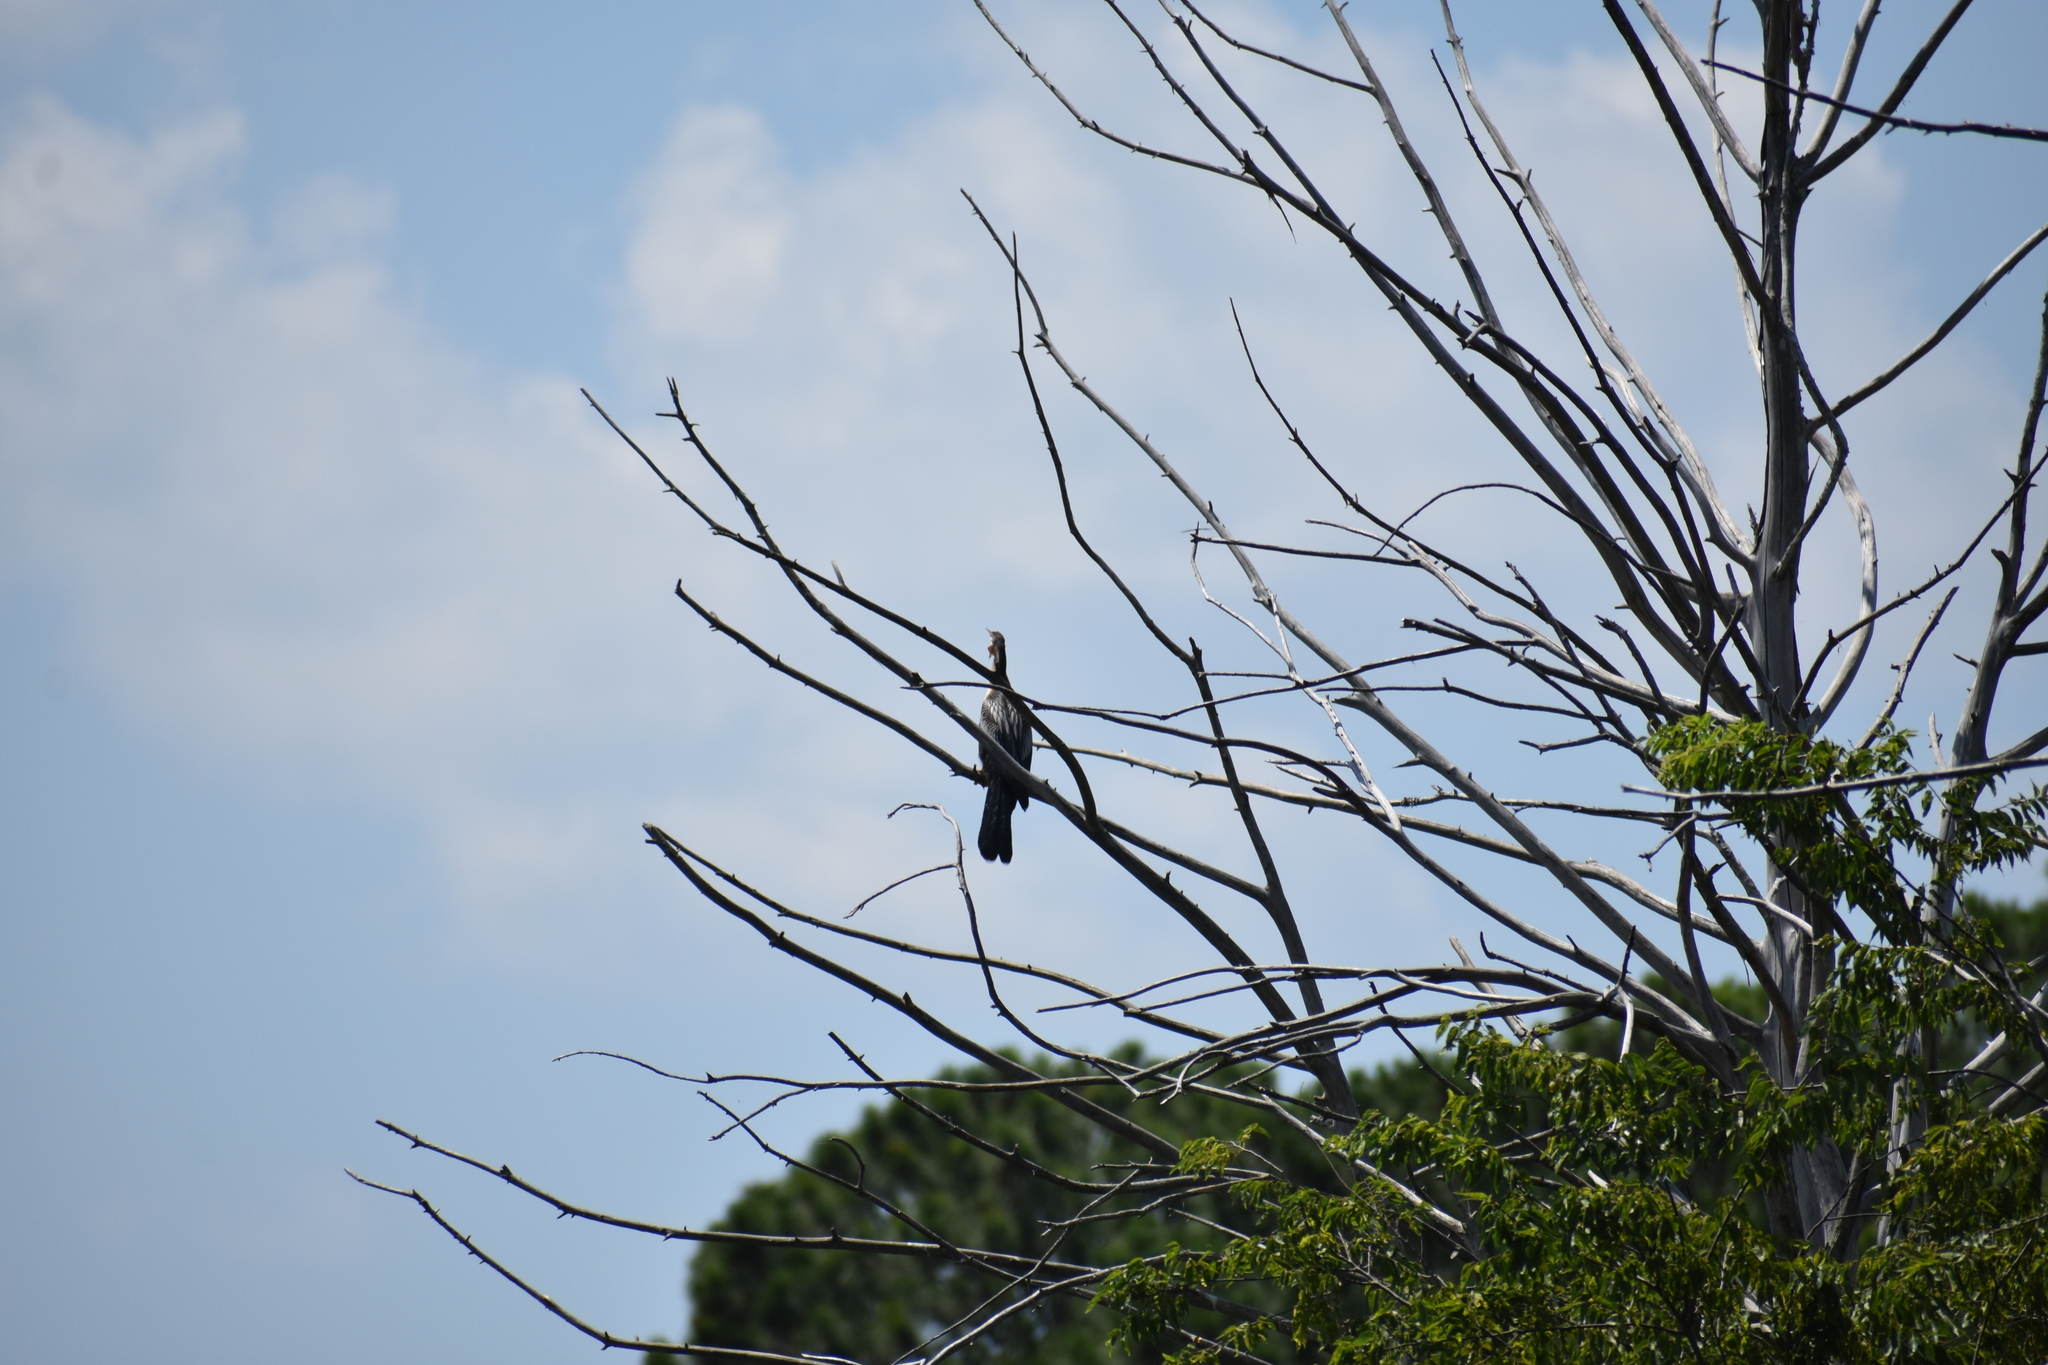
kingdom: Animalia
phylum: Chordata
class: Aves
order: Suliformes
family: Anhingidae
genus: Anhinga
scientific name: Anhinga anhinga
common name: Anhinga
